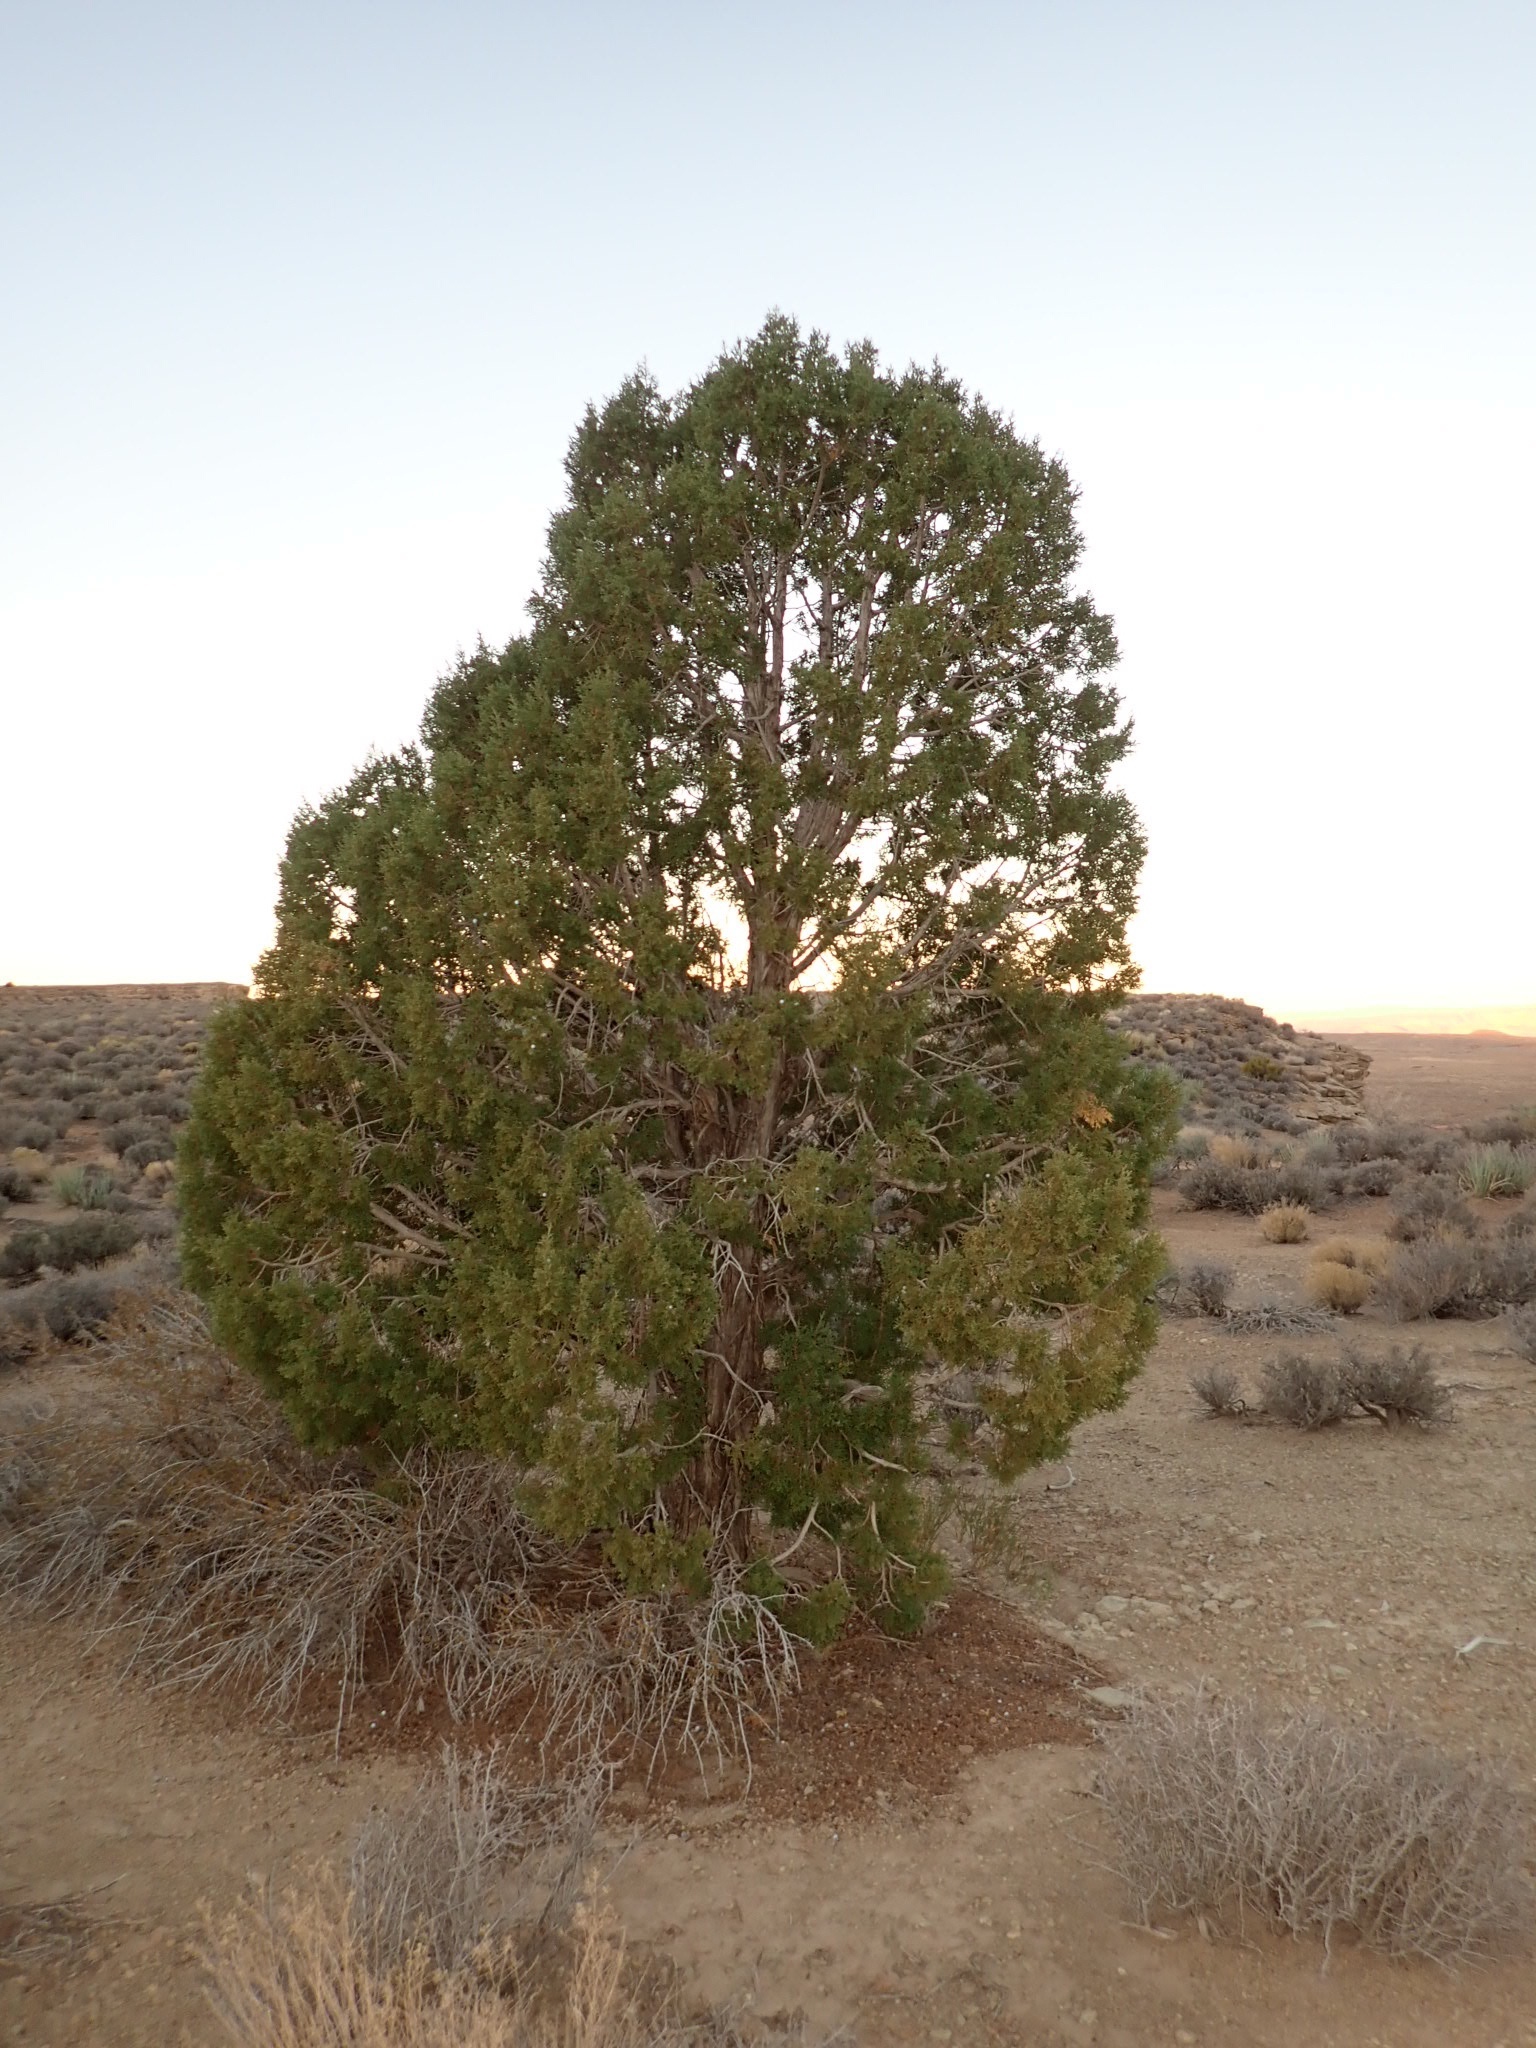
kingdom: Plantae
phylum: Tracheophyta
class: Pinopsida
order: Pinales
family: Cupressaceae
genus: Juniperus
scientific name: Juniperus osteosperma
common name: Utah juniper
